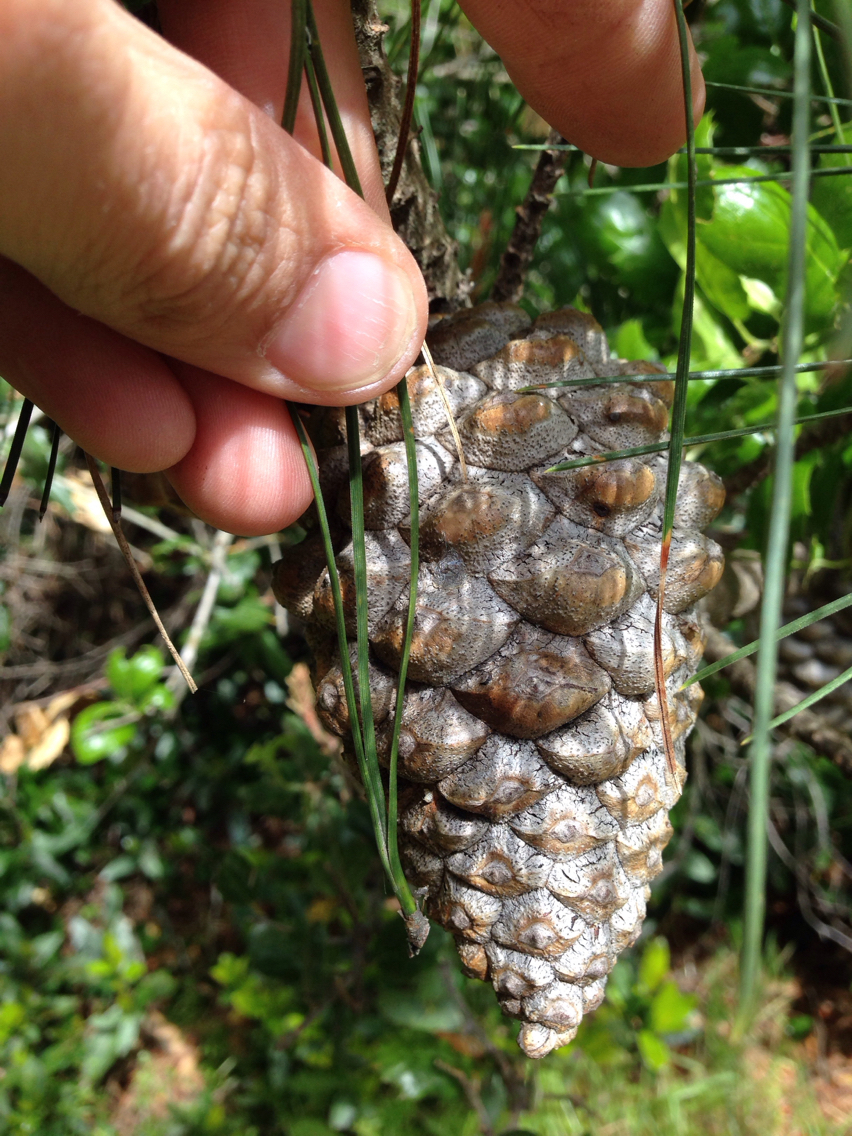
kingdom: Plantae
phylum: Tracheophyta
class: Pinopsida
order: Pinales
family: Pinaceae
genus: Pinus
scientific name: Pinus radiata
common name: Monterey pine
